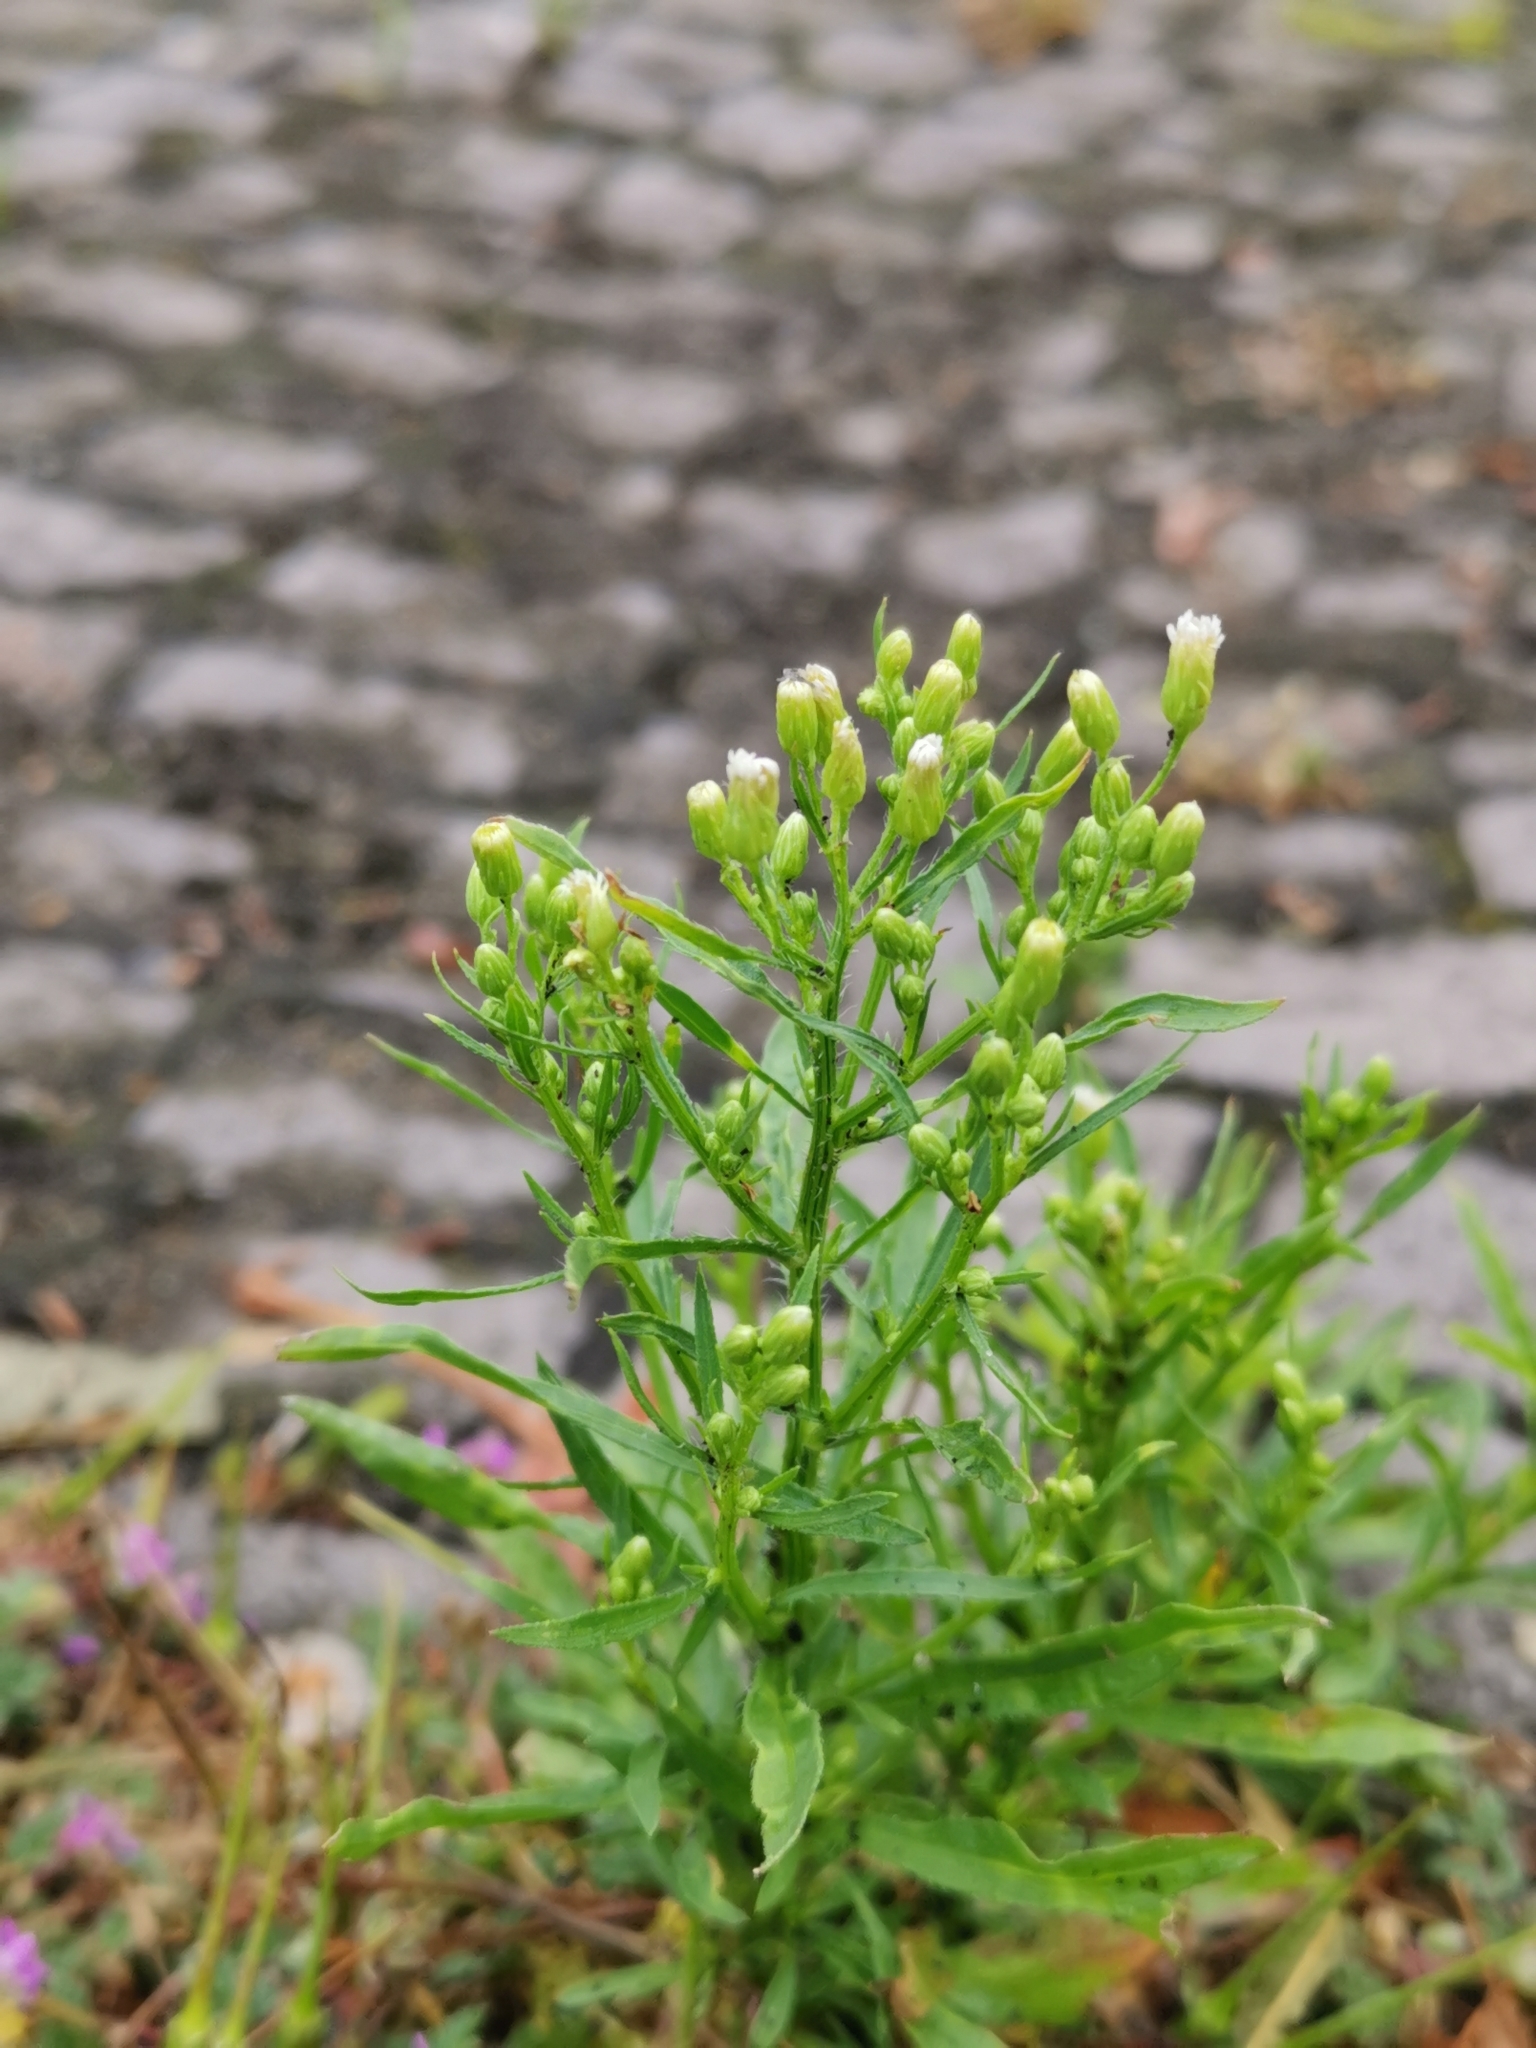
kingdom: Plantae
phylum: Tracheophyta
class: Magnoliopsida
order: Asterales
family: Asteraceae
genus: Erigeron
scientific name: Erigeron canadensis
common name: Canadian fleabane
